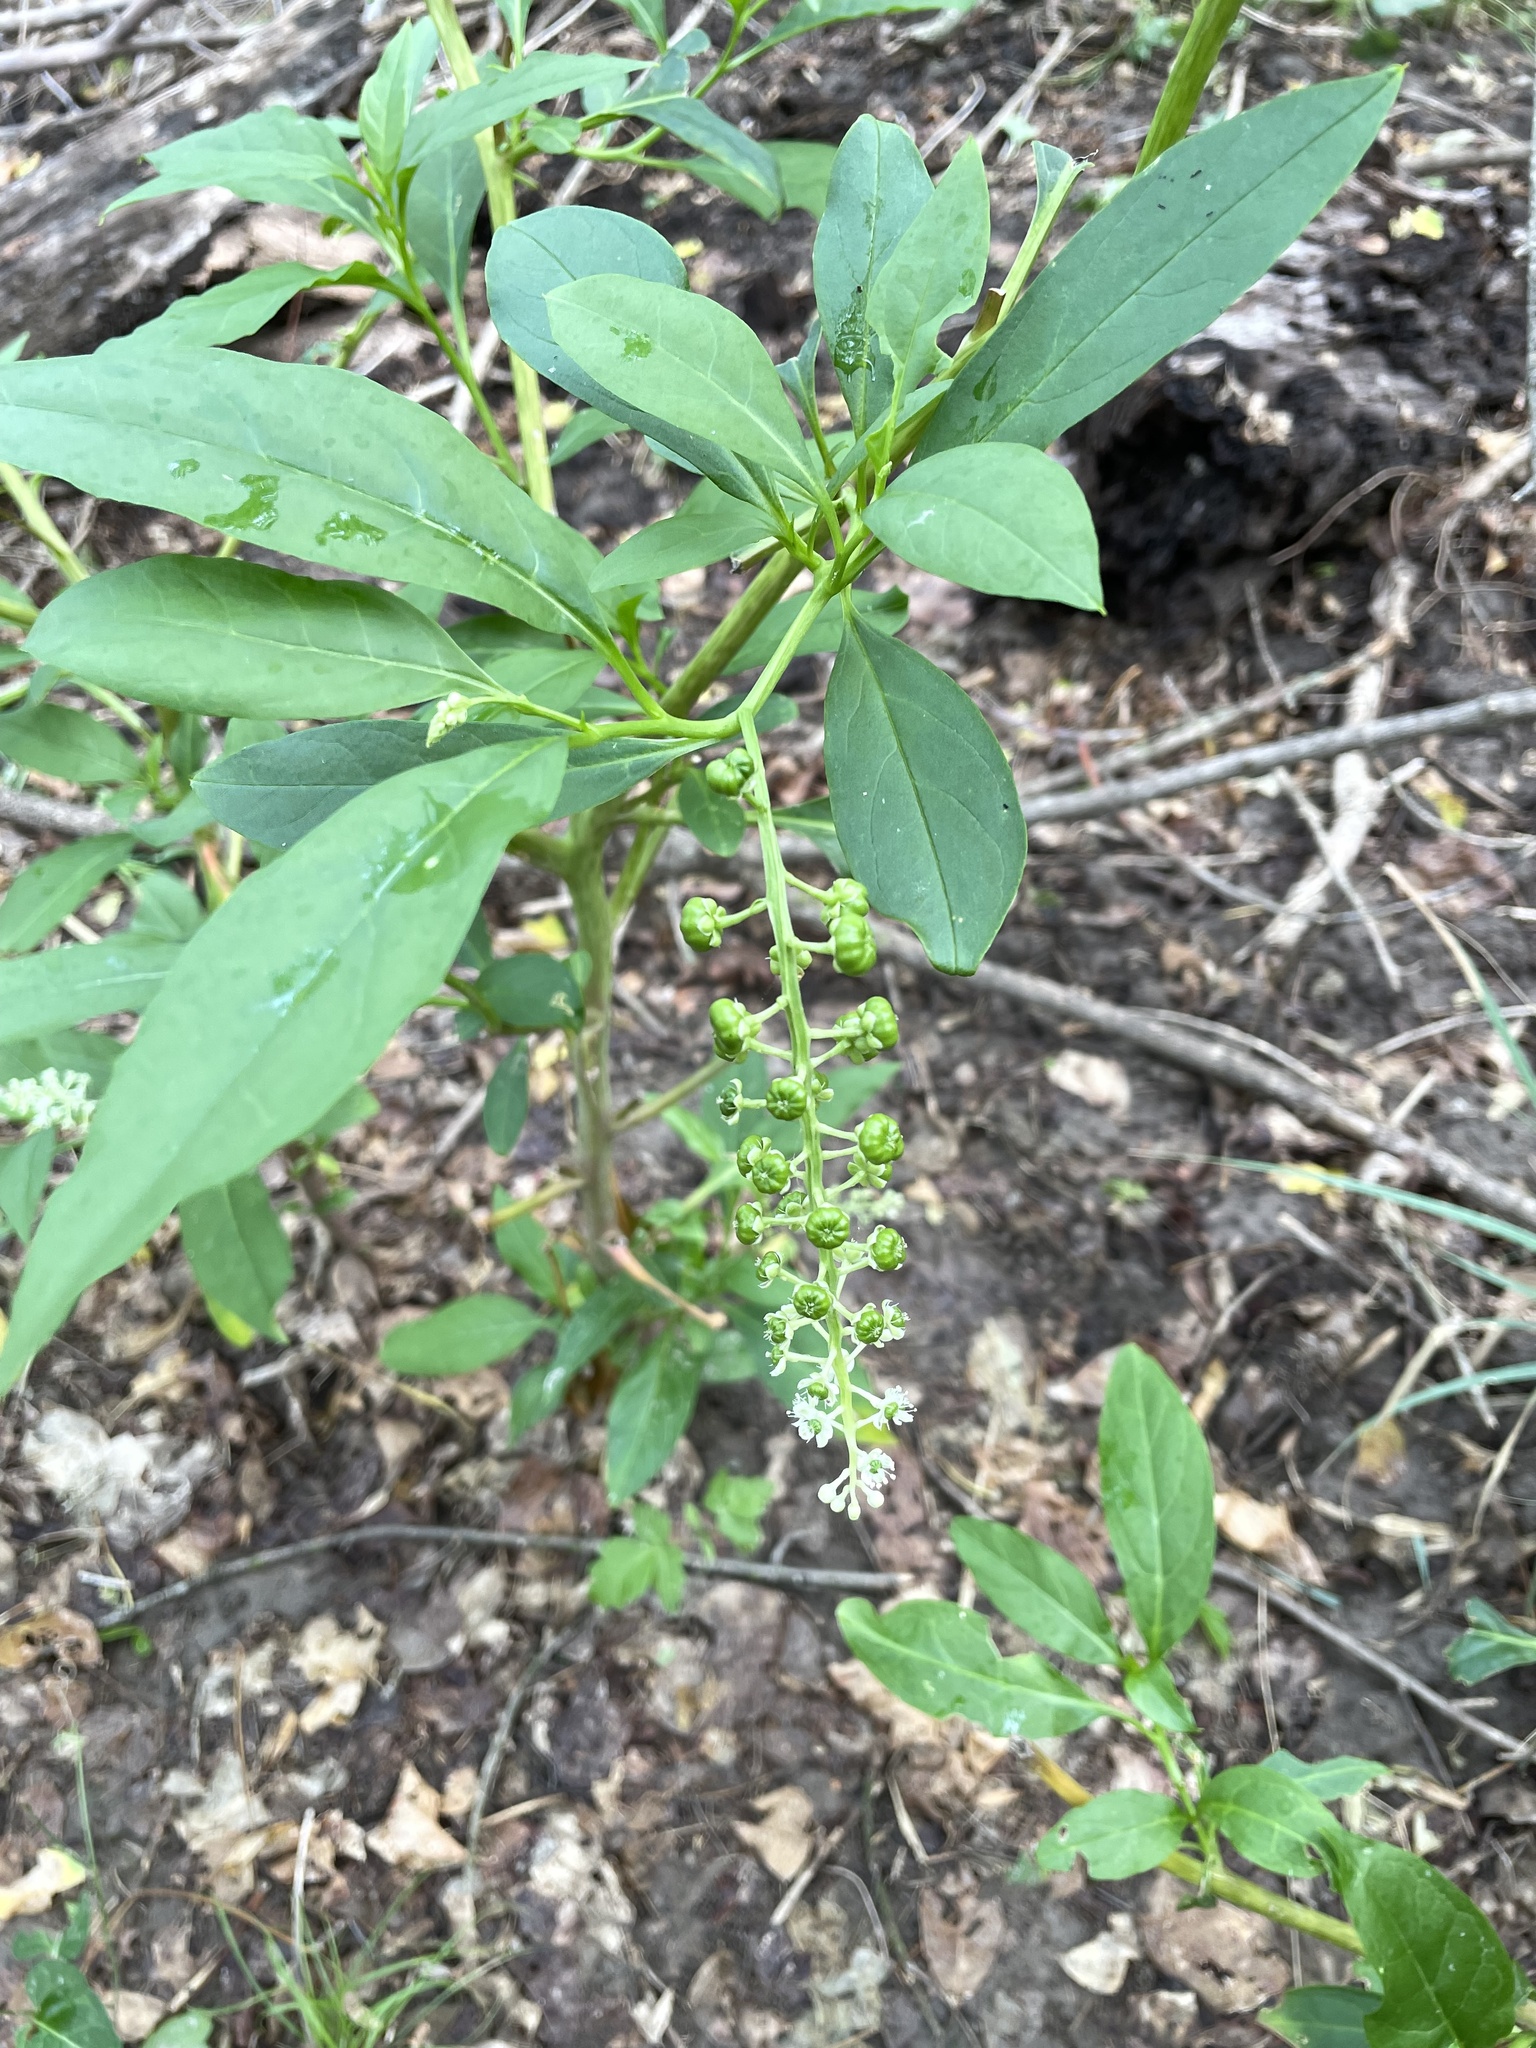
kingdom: Plantae
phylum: Tracheophyta
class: Magnoliopsida
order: Caryophyllales
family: Phytolaccaceae
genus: Phytolacca
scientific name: Phytolacca americana
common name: American pokeweed
